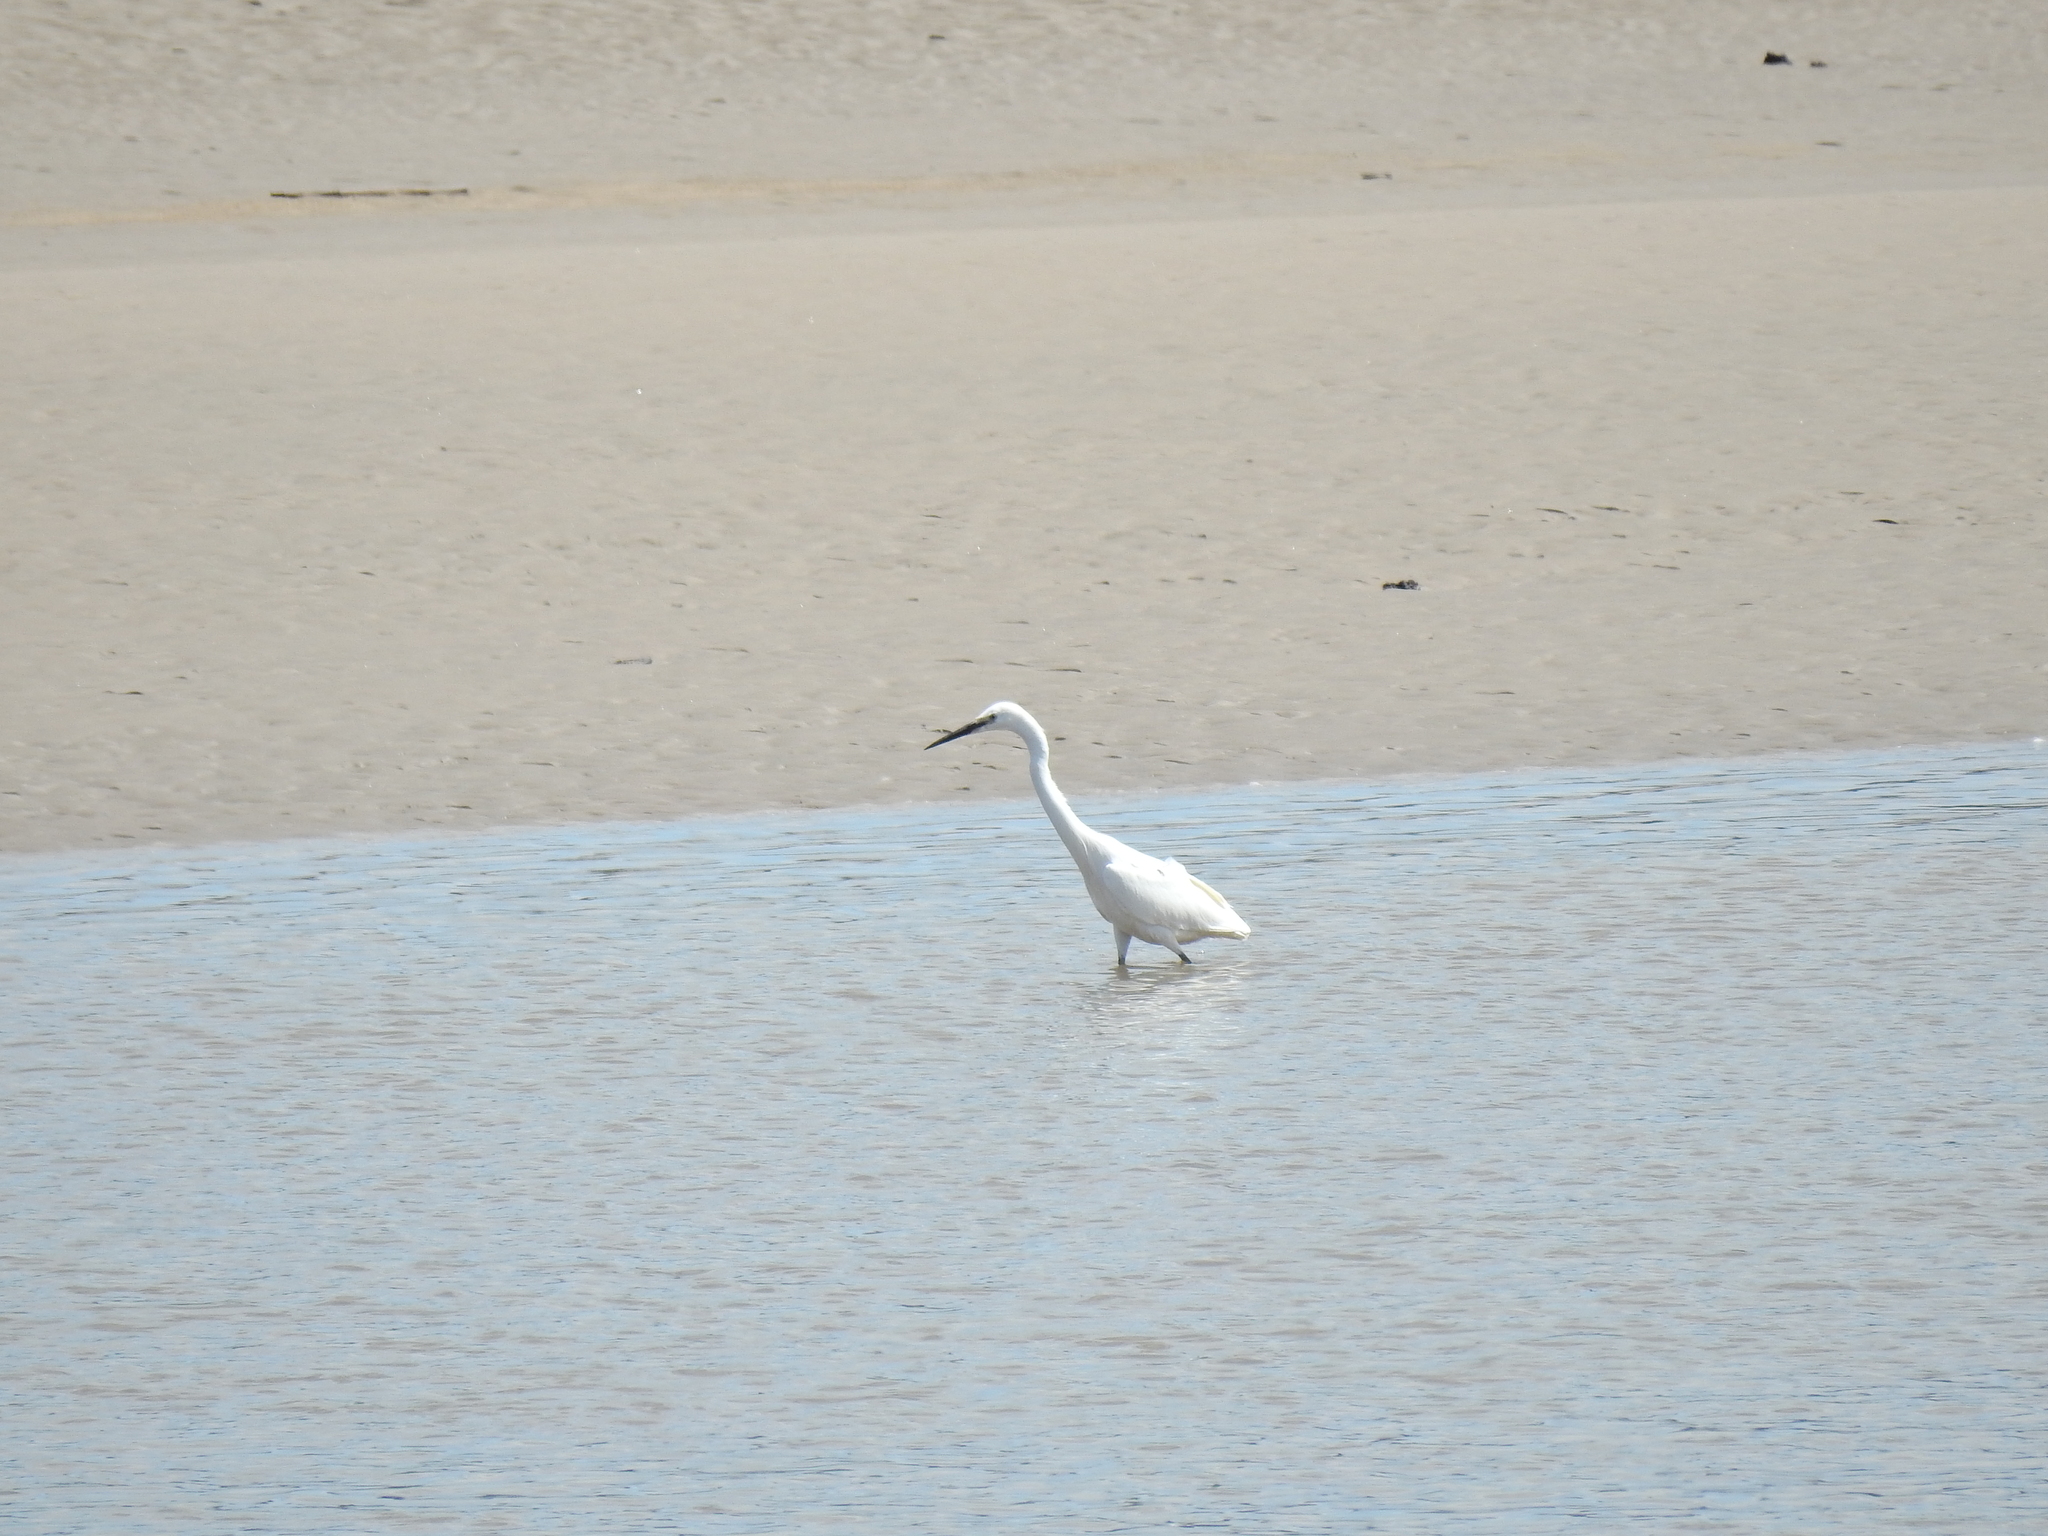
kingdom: Animalia
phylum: Chordata
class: Aves
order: Pelecaniformes
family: Ardeidae
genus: Egretta
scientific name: Egretta garzetta
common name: Little egret
